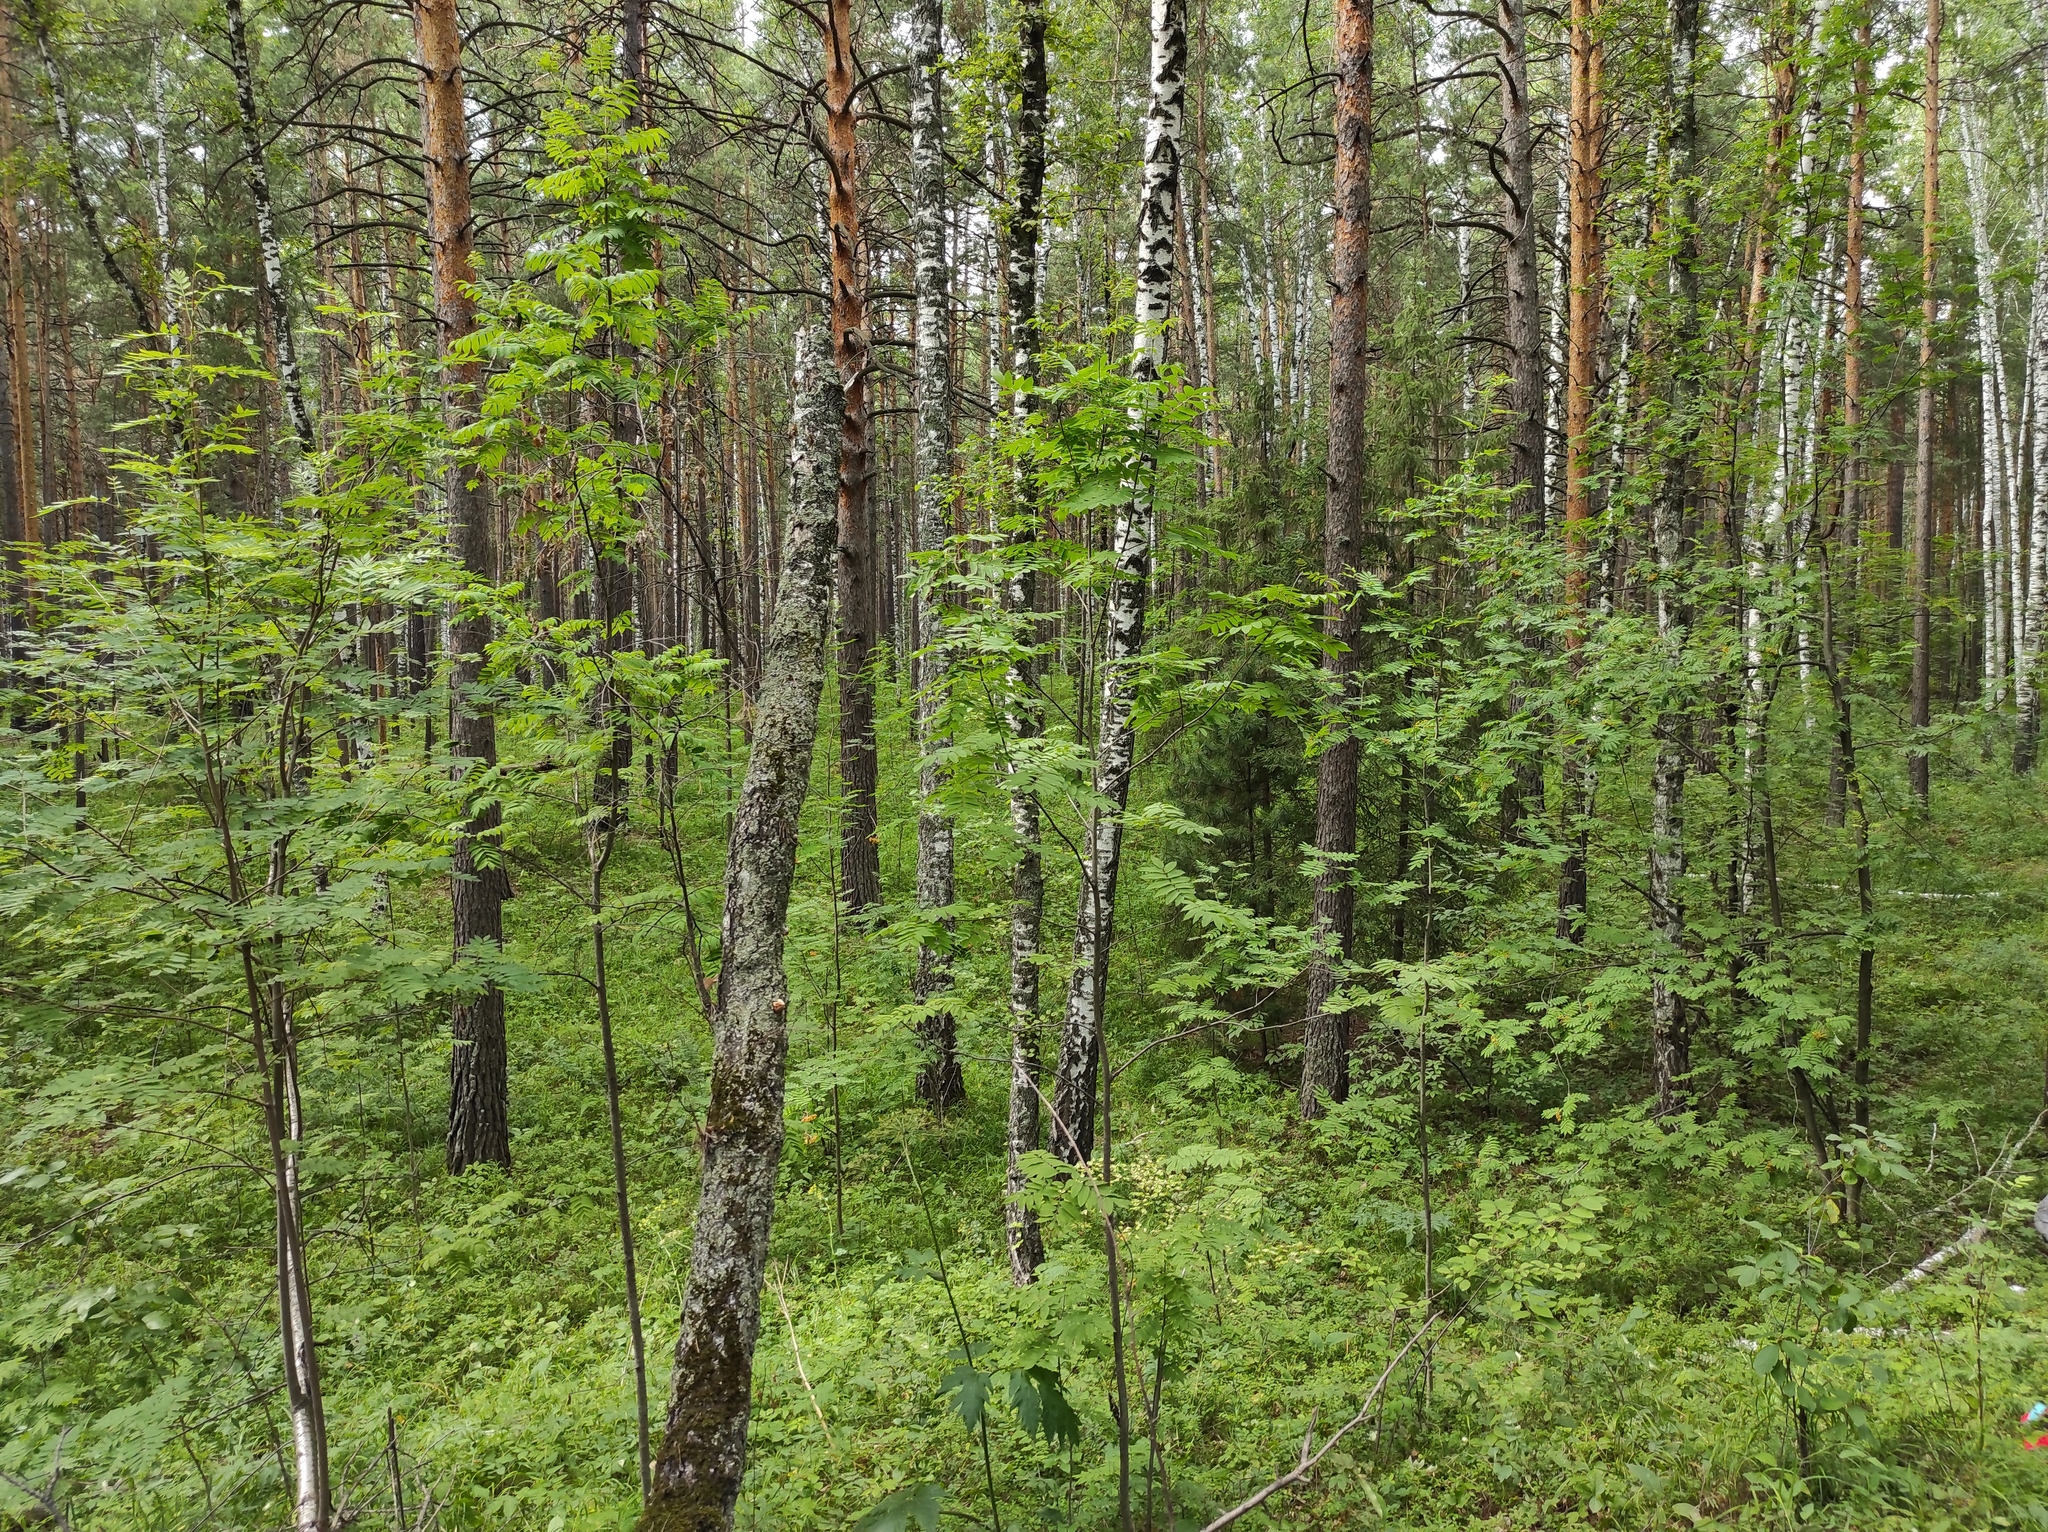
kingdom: Plantae
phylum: Tracheophyta
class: Magnoliopsida
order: Fagales
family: Betulaceae
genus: Betula
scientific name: Betula pendula
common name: Silver birch
